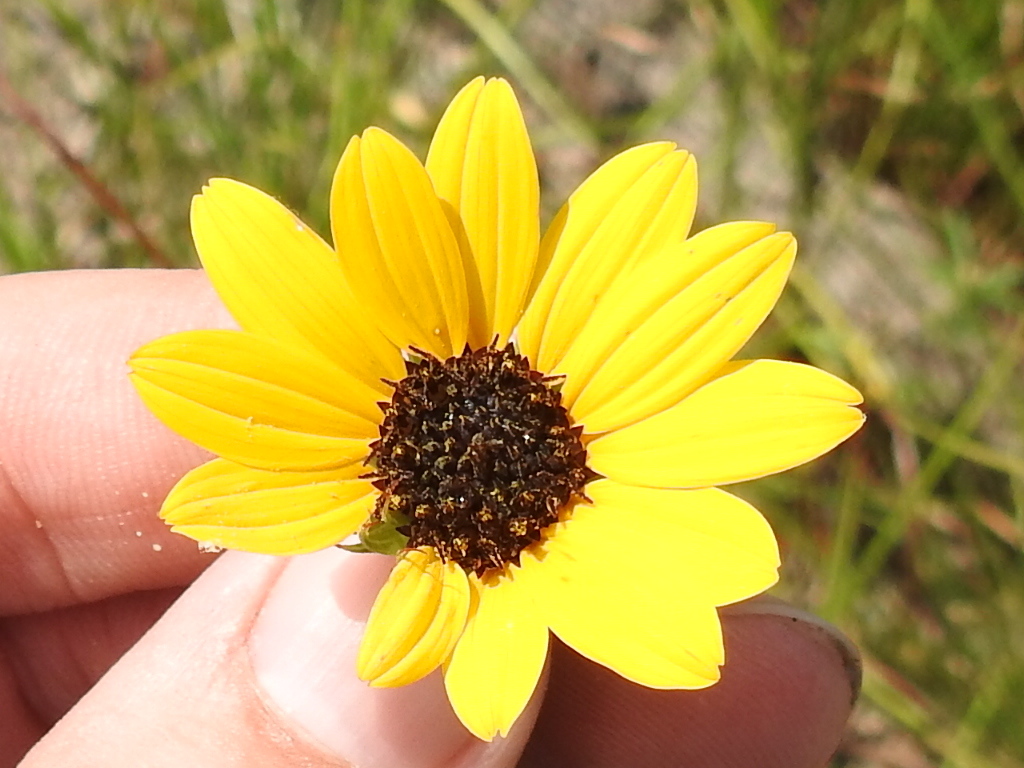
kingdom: Plantae
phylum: Tracheophyta
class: Magnoliopsida
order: Asterales
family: Asteraceae
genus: Helianthus
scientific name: Helianthus debilis
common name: Weak sunflower
